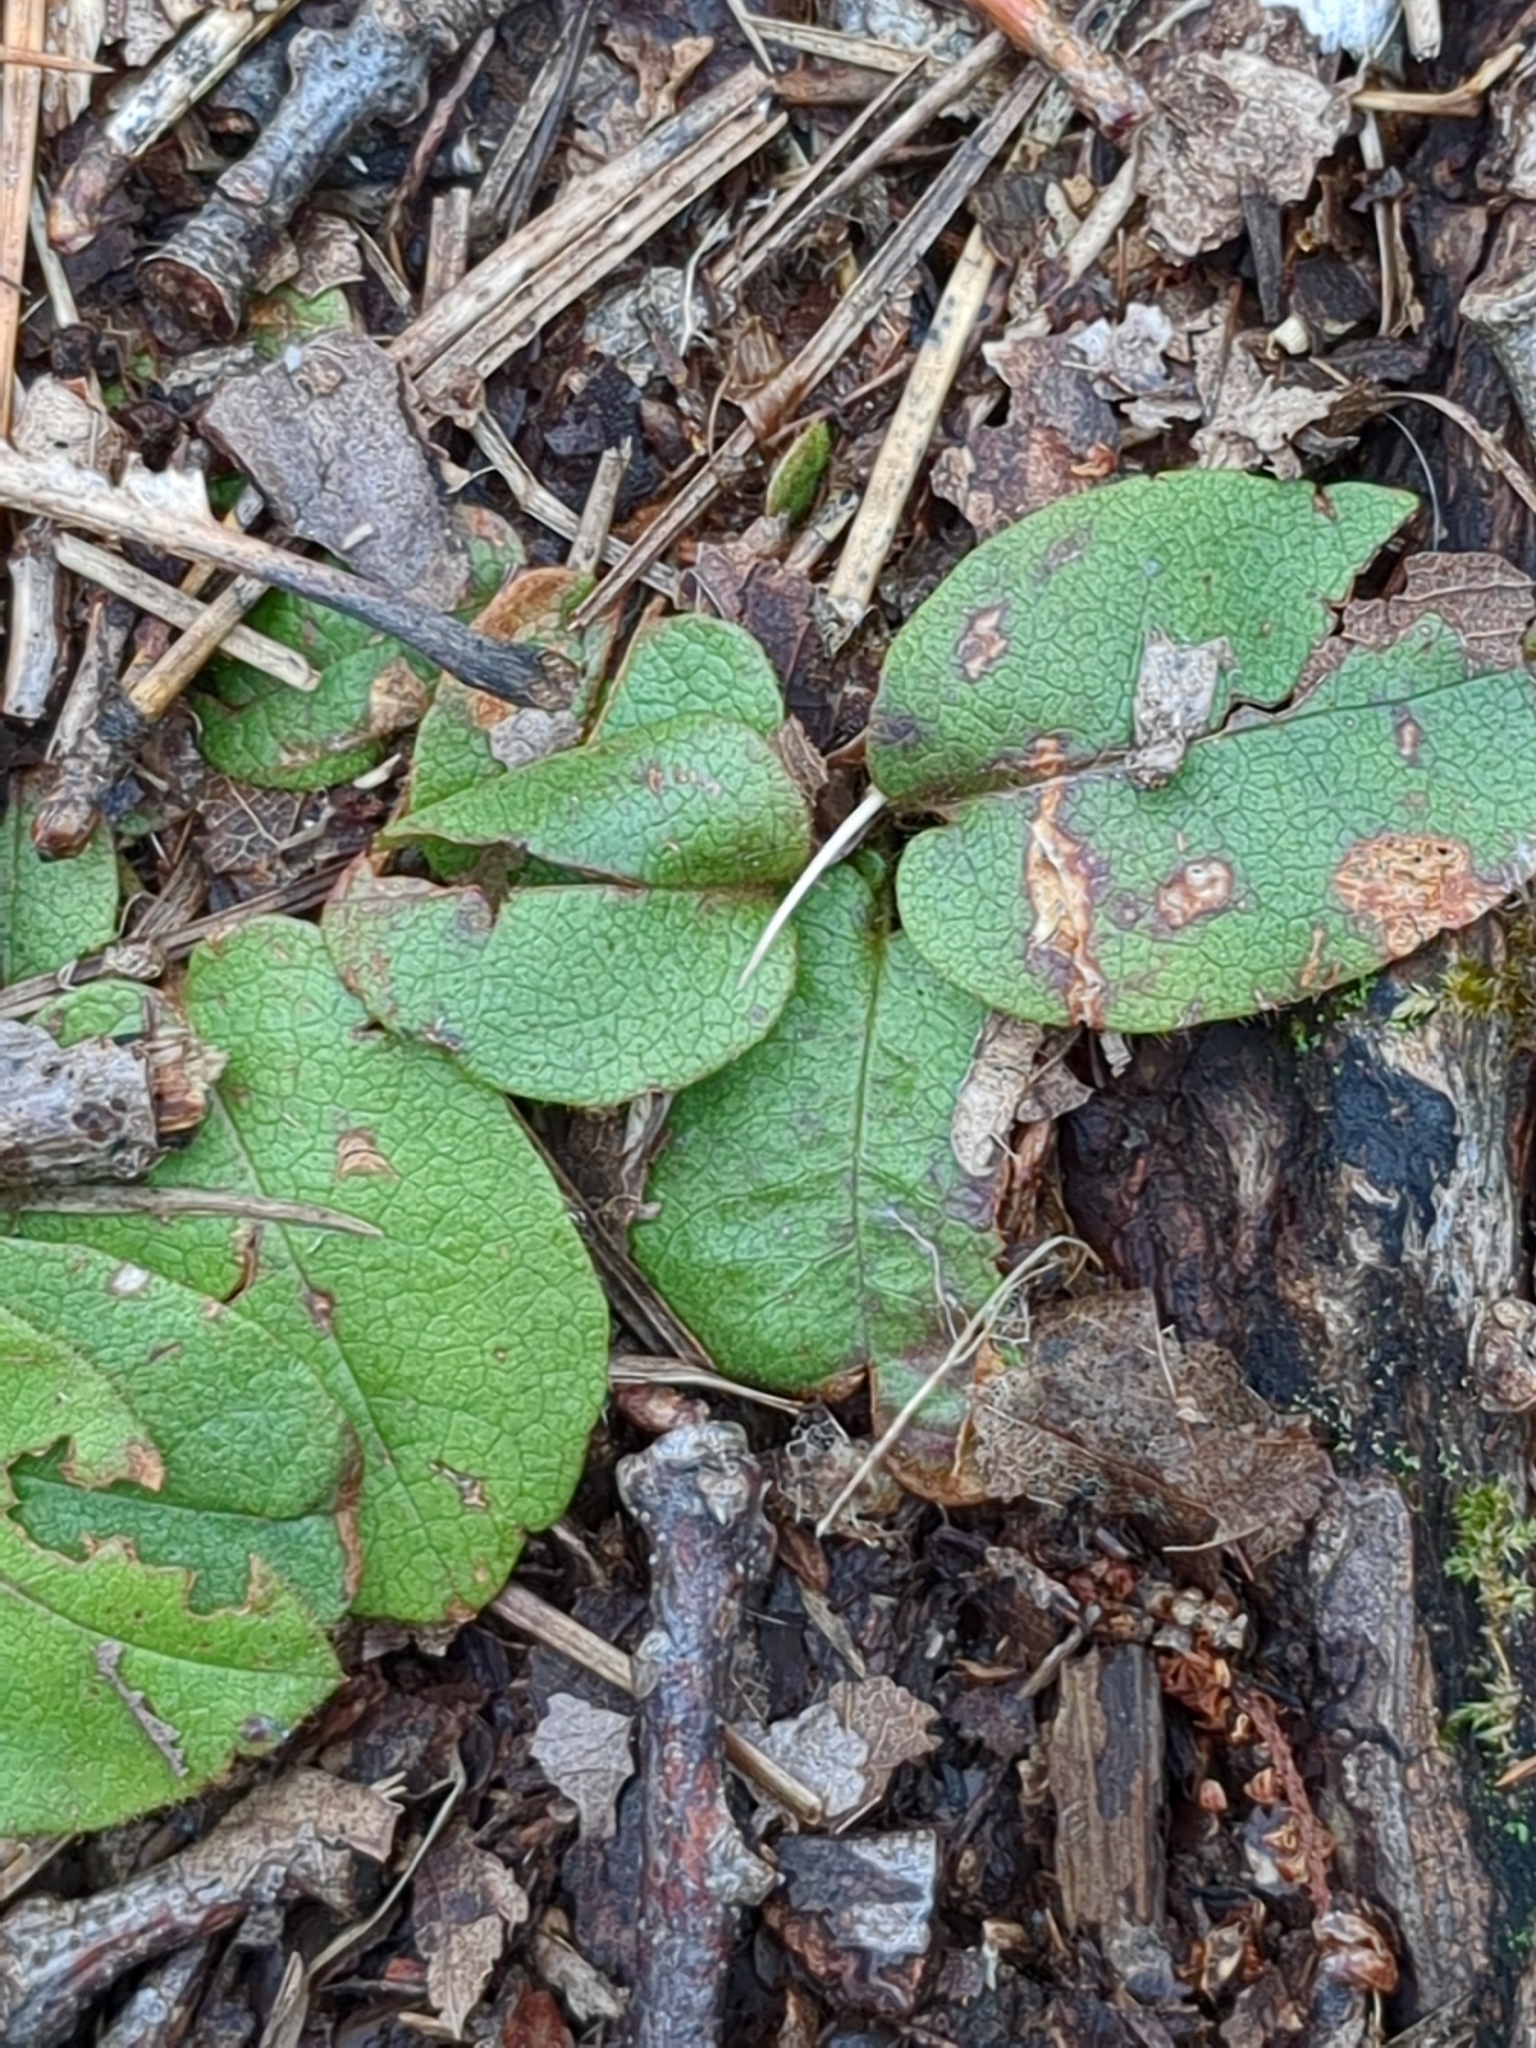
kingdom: Plantae
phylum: Tracheophyta
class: Magnoliopsida
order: Ericales
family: Ericaceae
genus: Epigaea
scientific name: Epigaea repens
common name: Gravelroot
